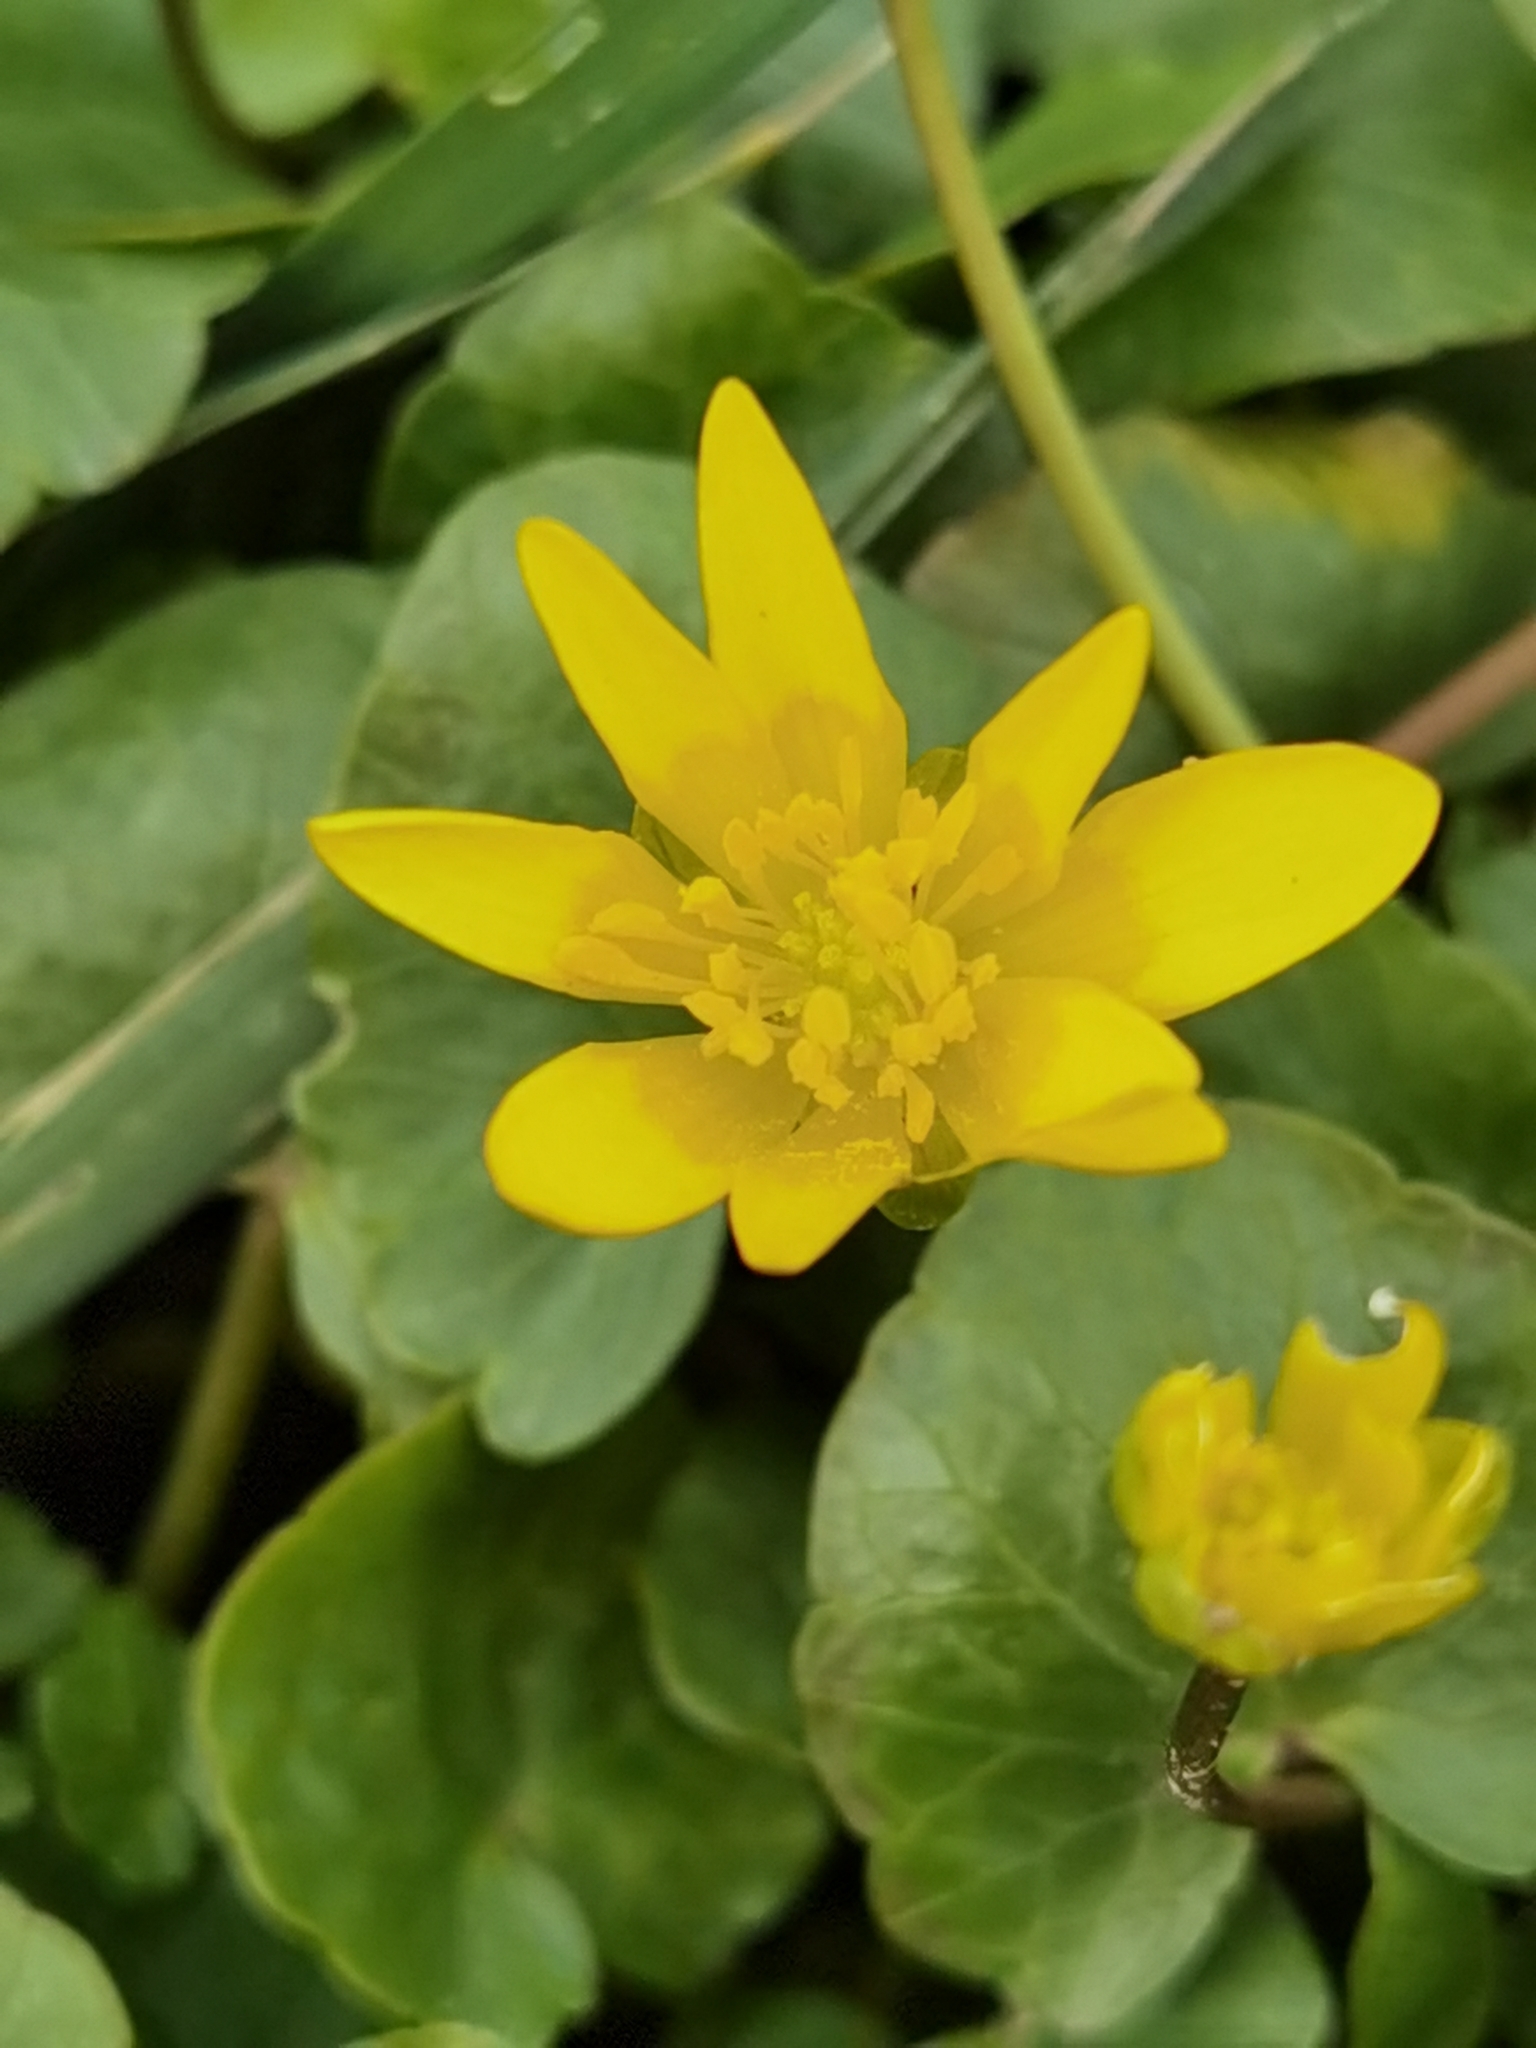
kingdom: Plantae
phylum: Tracheophyta
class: Magnoliopsida
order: Ranunculales
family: Ranunculaceae
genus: Ficaria
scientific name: Ficaria verna
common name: Lesser celandine
